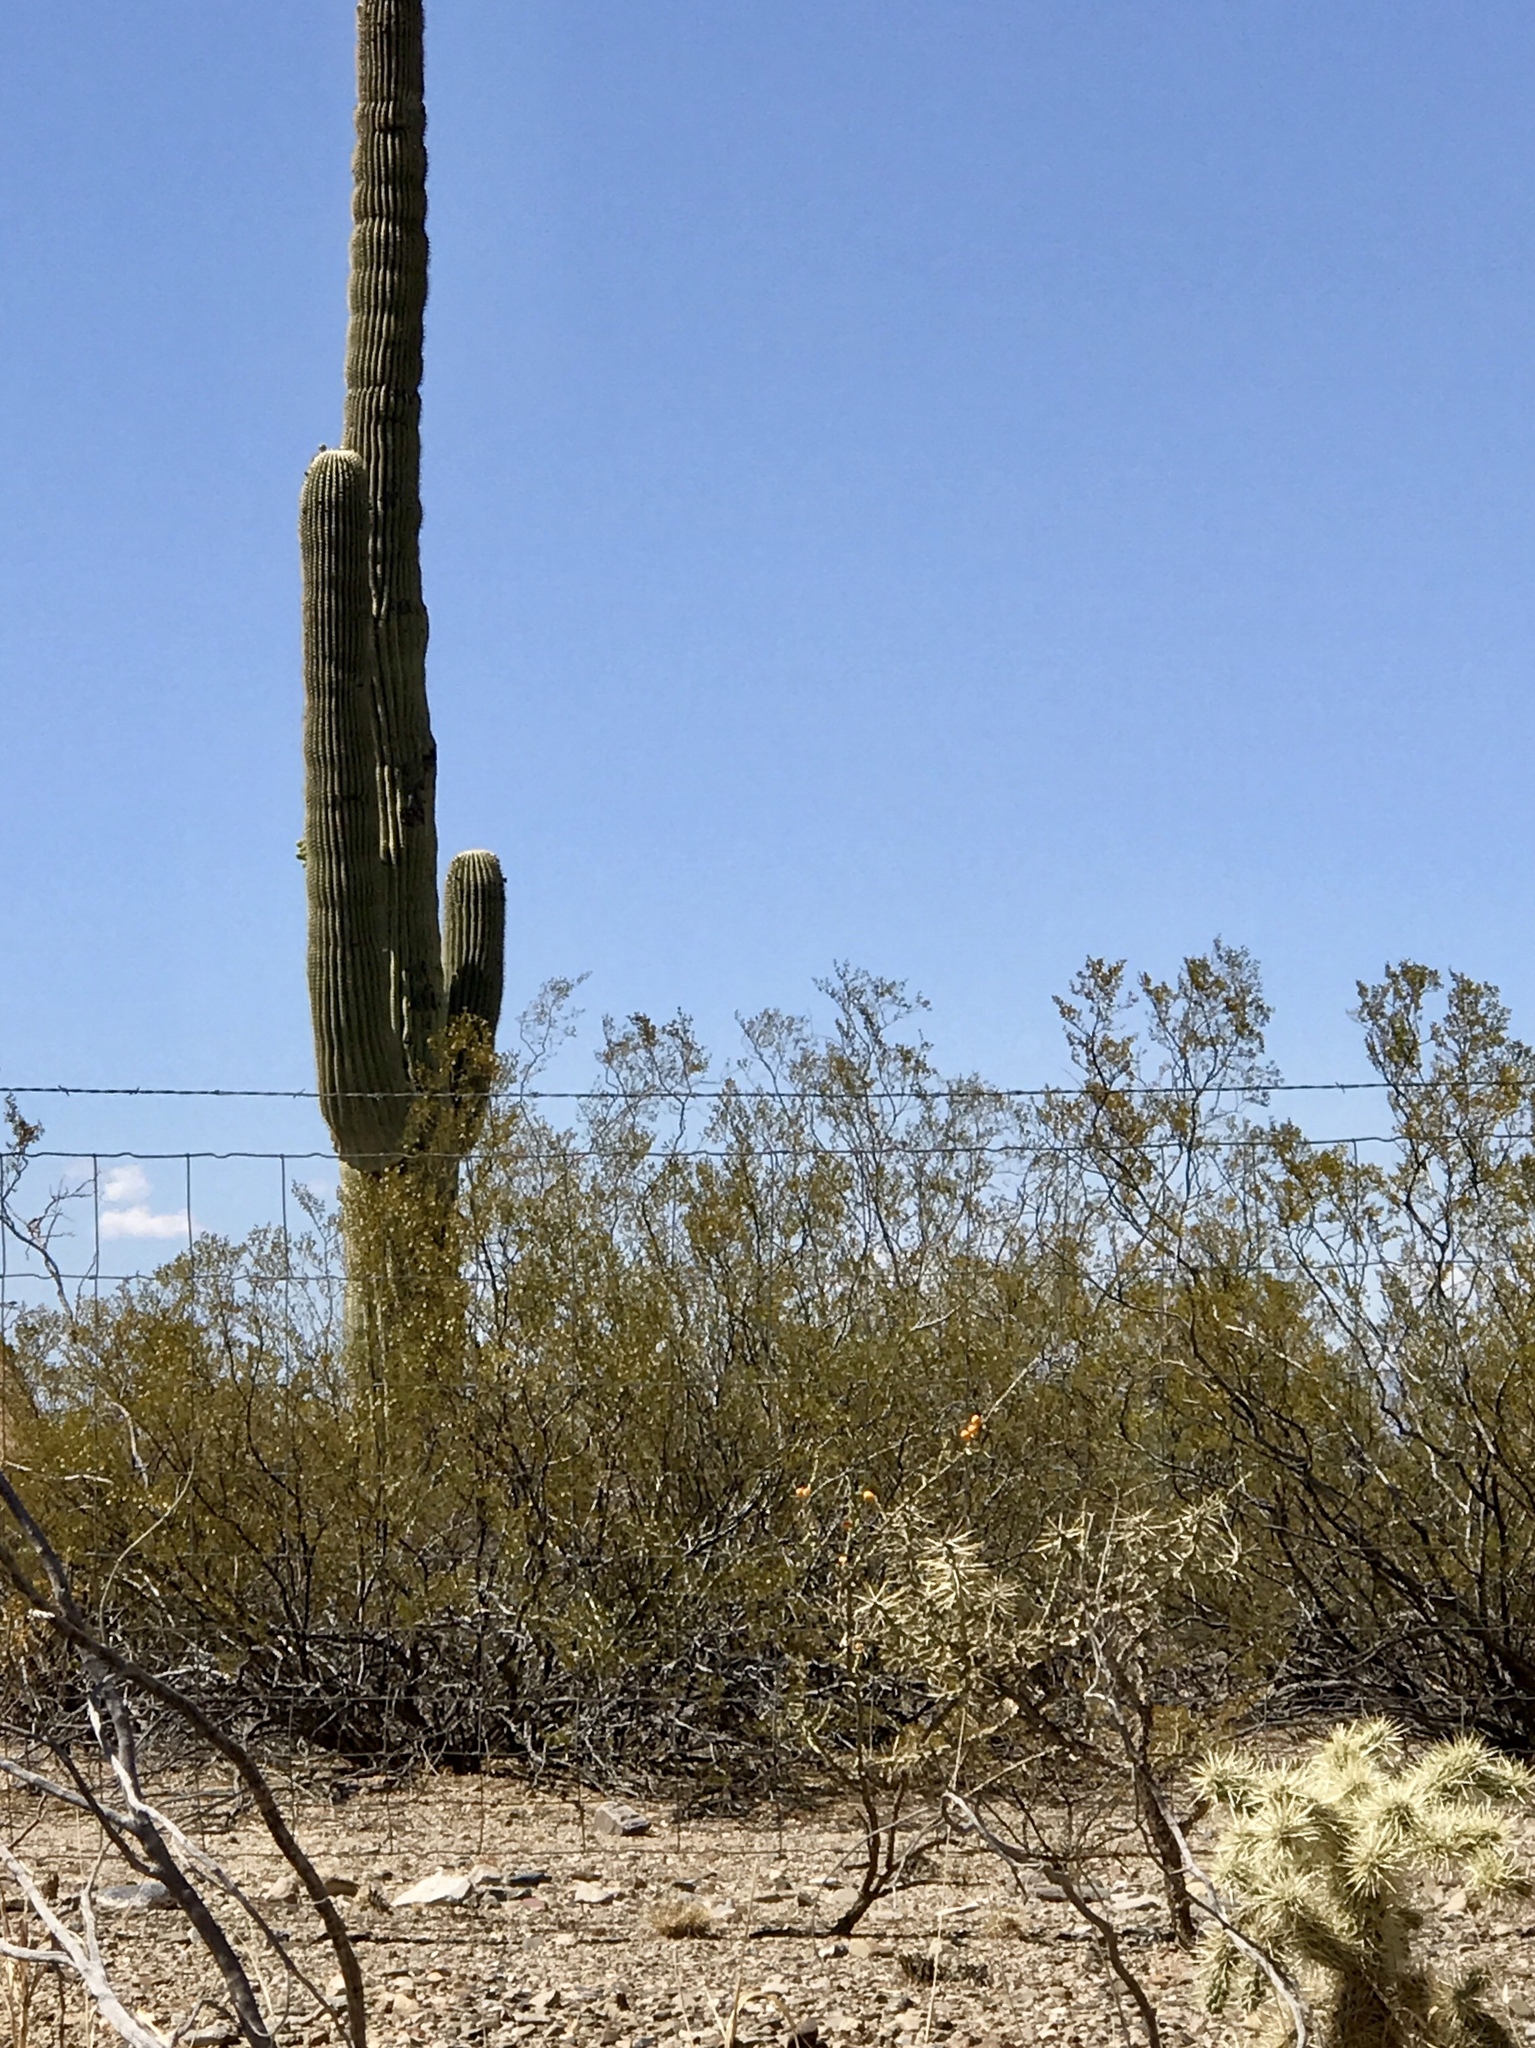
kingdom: Plantae
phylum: Tracheophyta
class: Magnoliopsida
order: Zygophyllales
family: Zygophyllaceae
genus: Larrea
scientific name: Larrea tridentata
